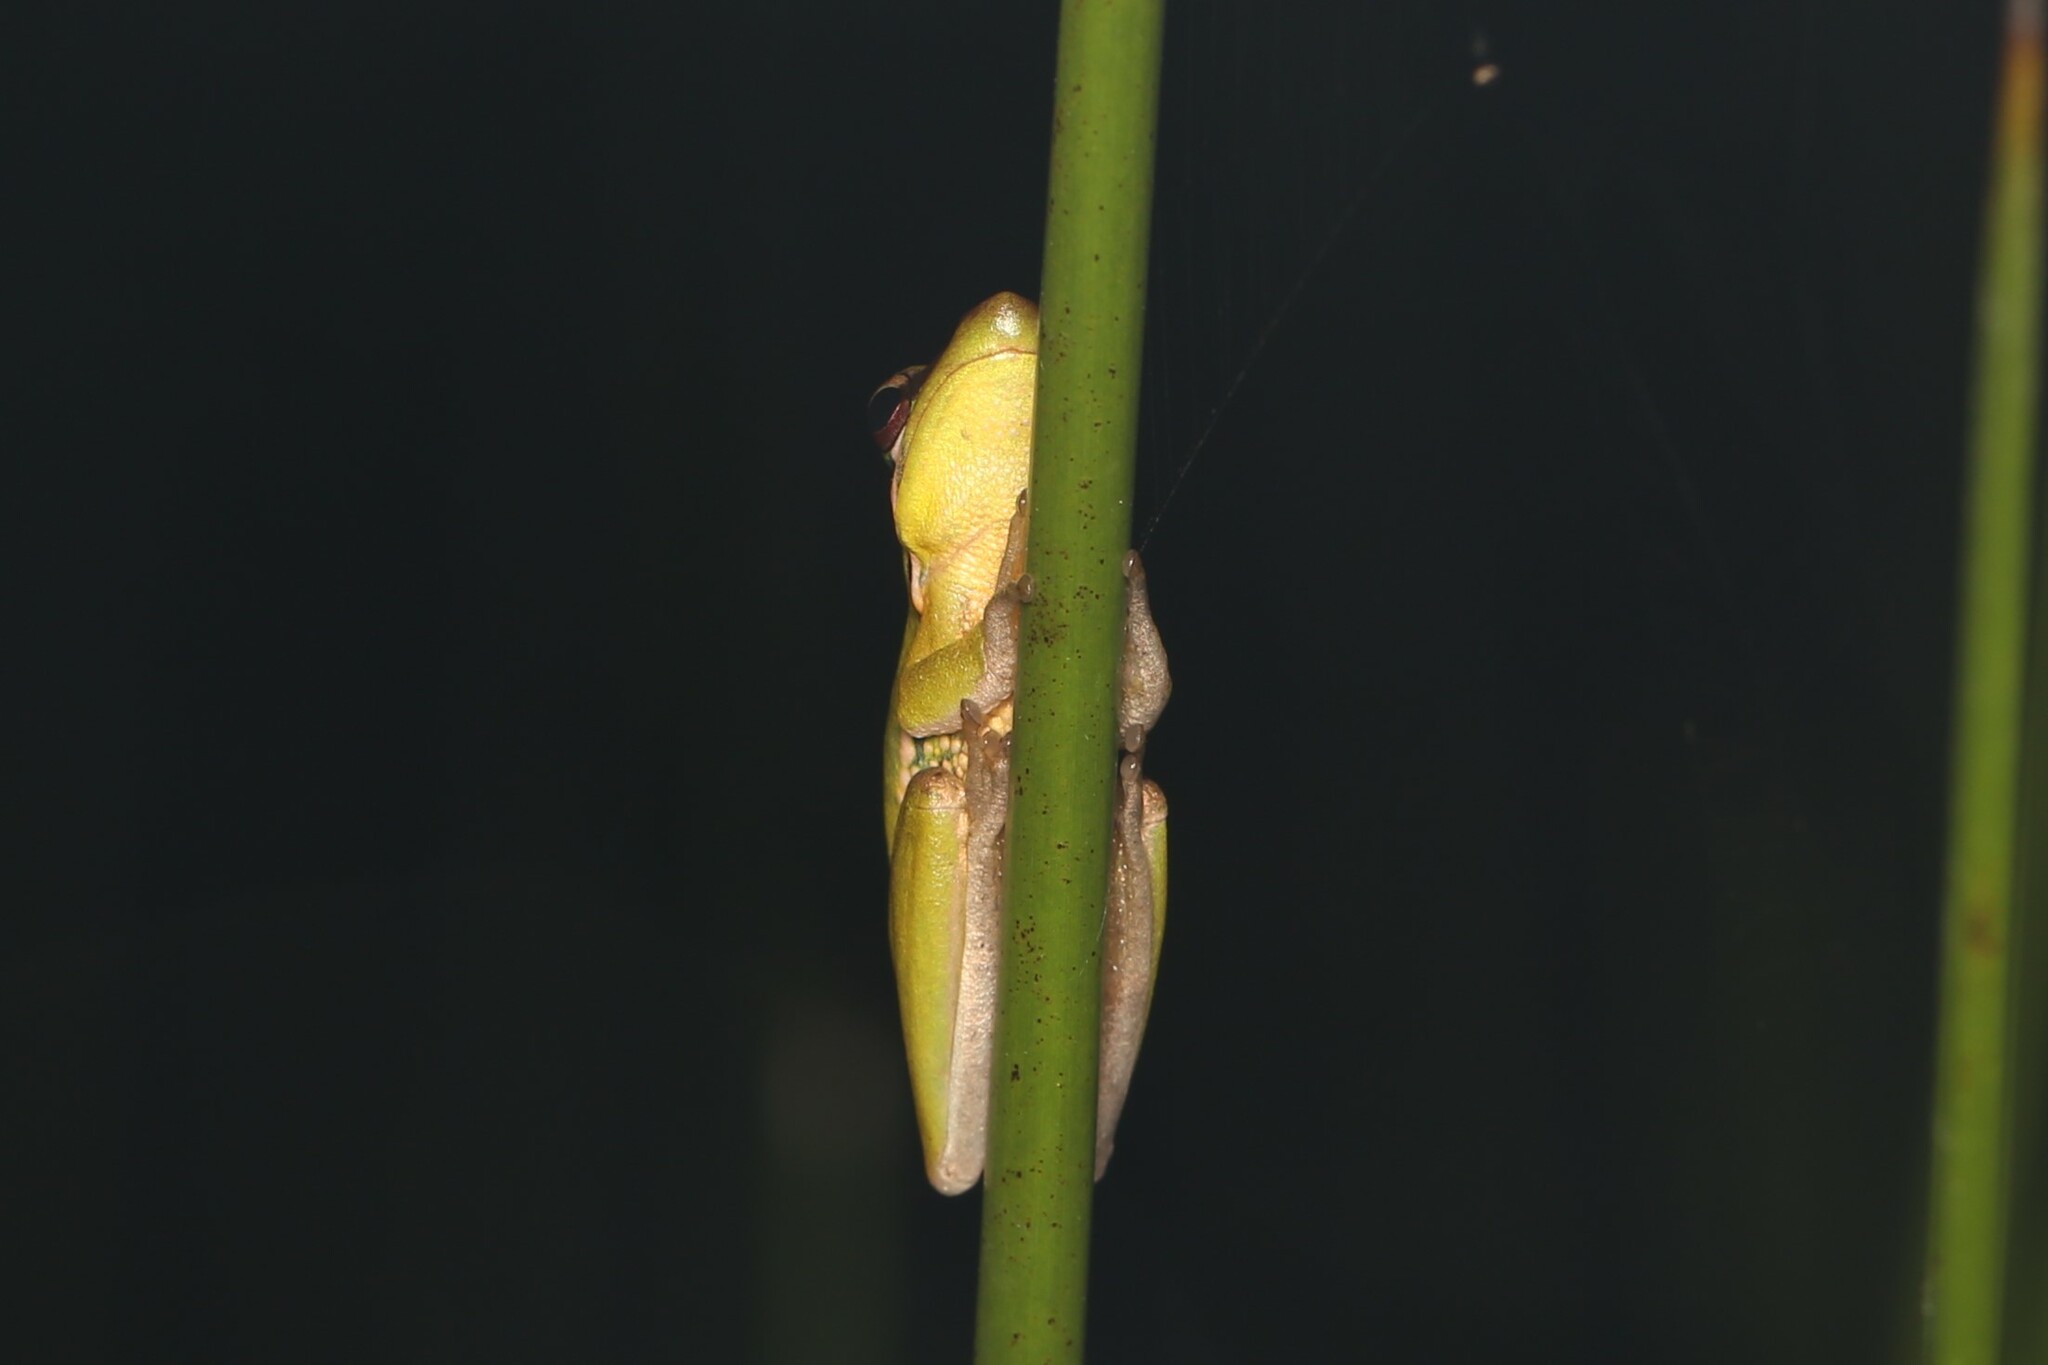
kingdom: Animalia
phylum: Chordata
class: Amphibia
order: Anura
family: Pelodryadidae
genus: Litoria
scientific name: Litoria olongburensis
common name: Olongburra frog
